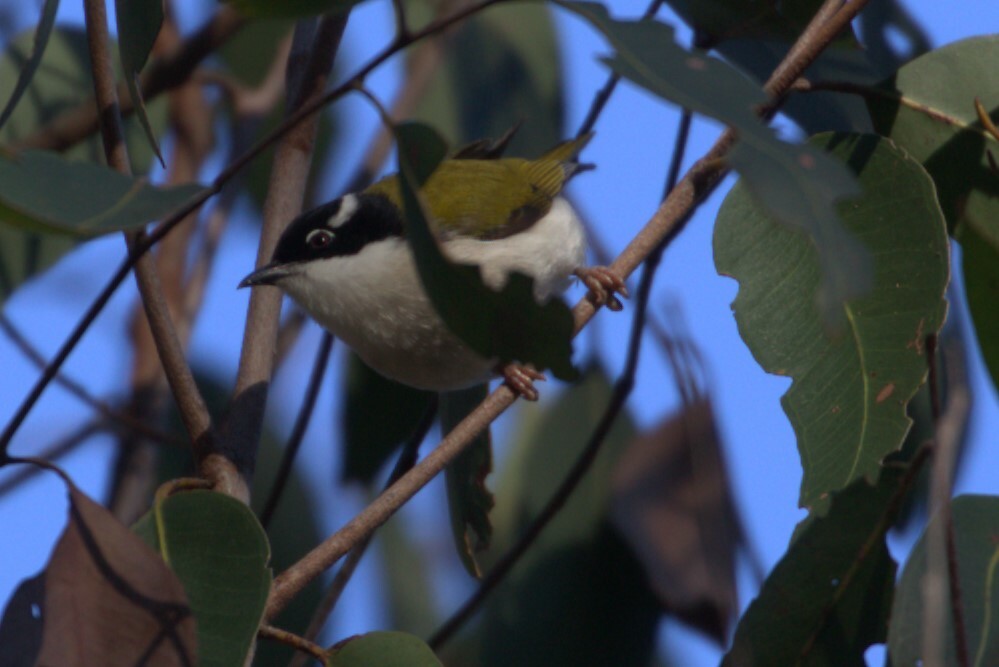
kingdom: Animalia
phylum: Chordata
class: Aves
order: Passeriformes
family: Meliphagidae
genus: Melithreptus
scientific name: Melithreptus albogularis
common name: White-throated honeyeater
